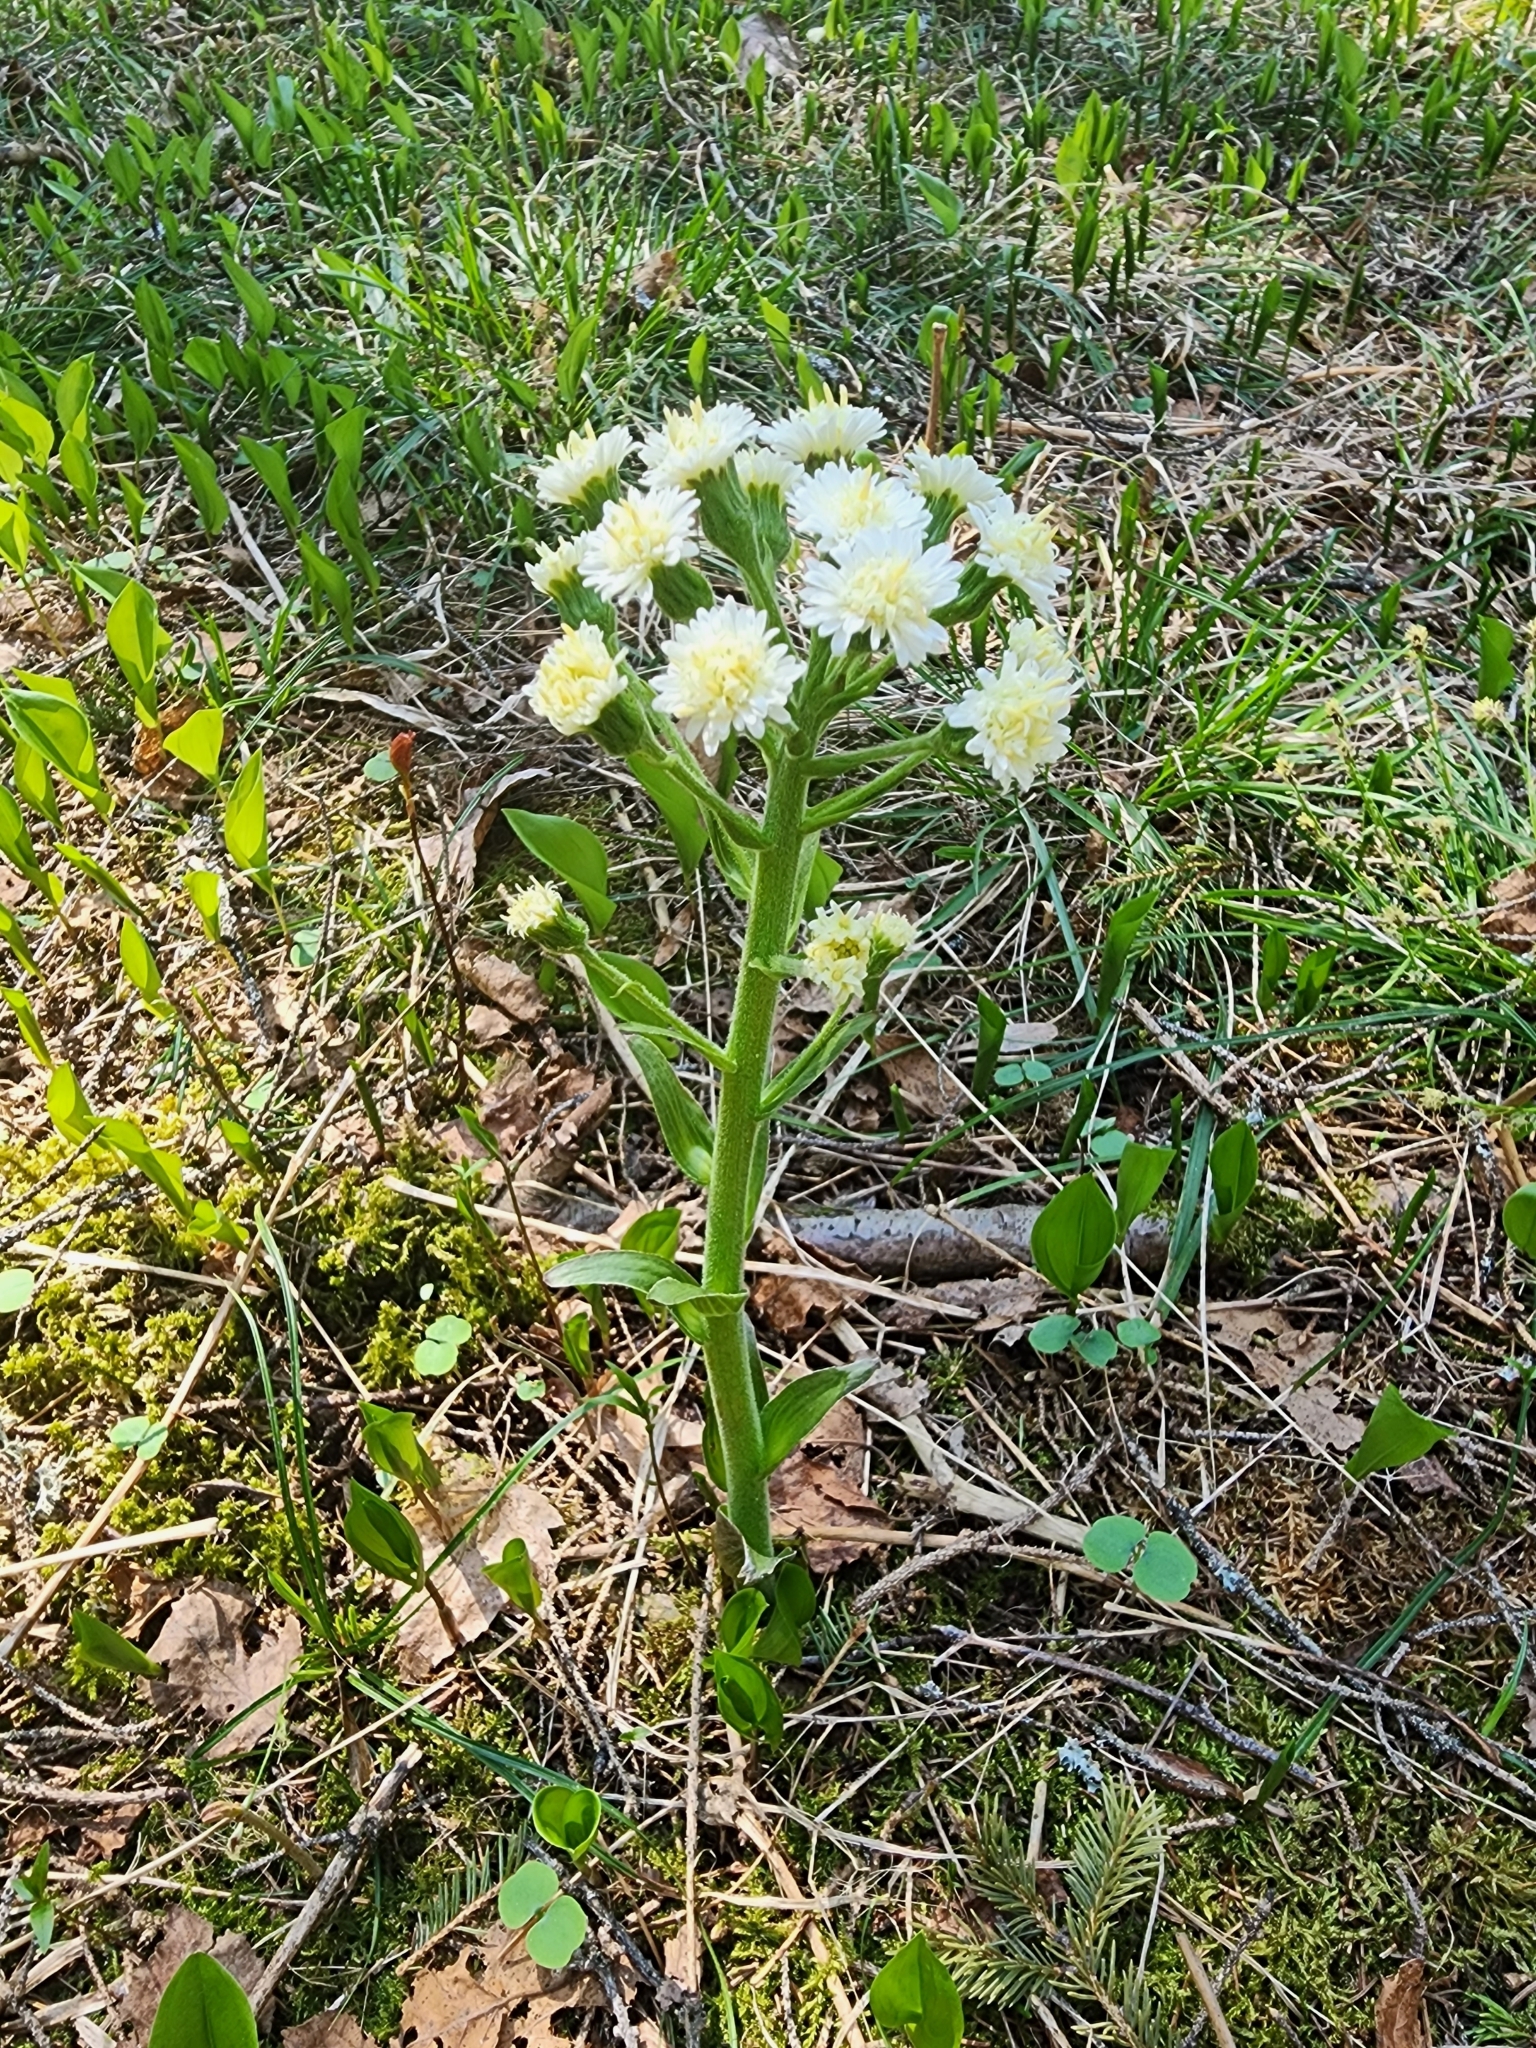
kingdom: Plantae
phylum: Tracheophyta
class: Magnoliopsida
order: Asterales
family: Asteraceae
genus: Petasites
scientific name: Petasites frigidus
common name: Arctic butterbur
